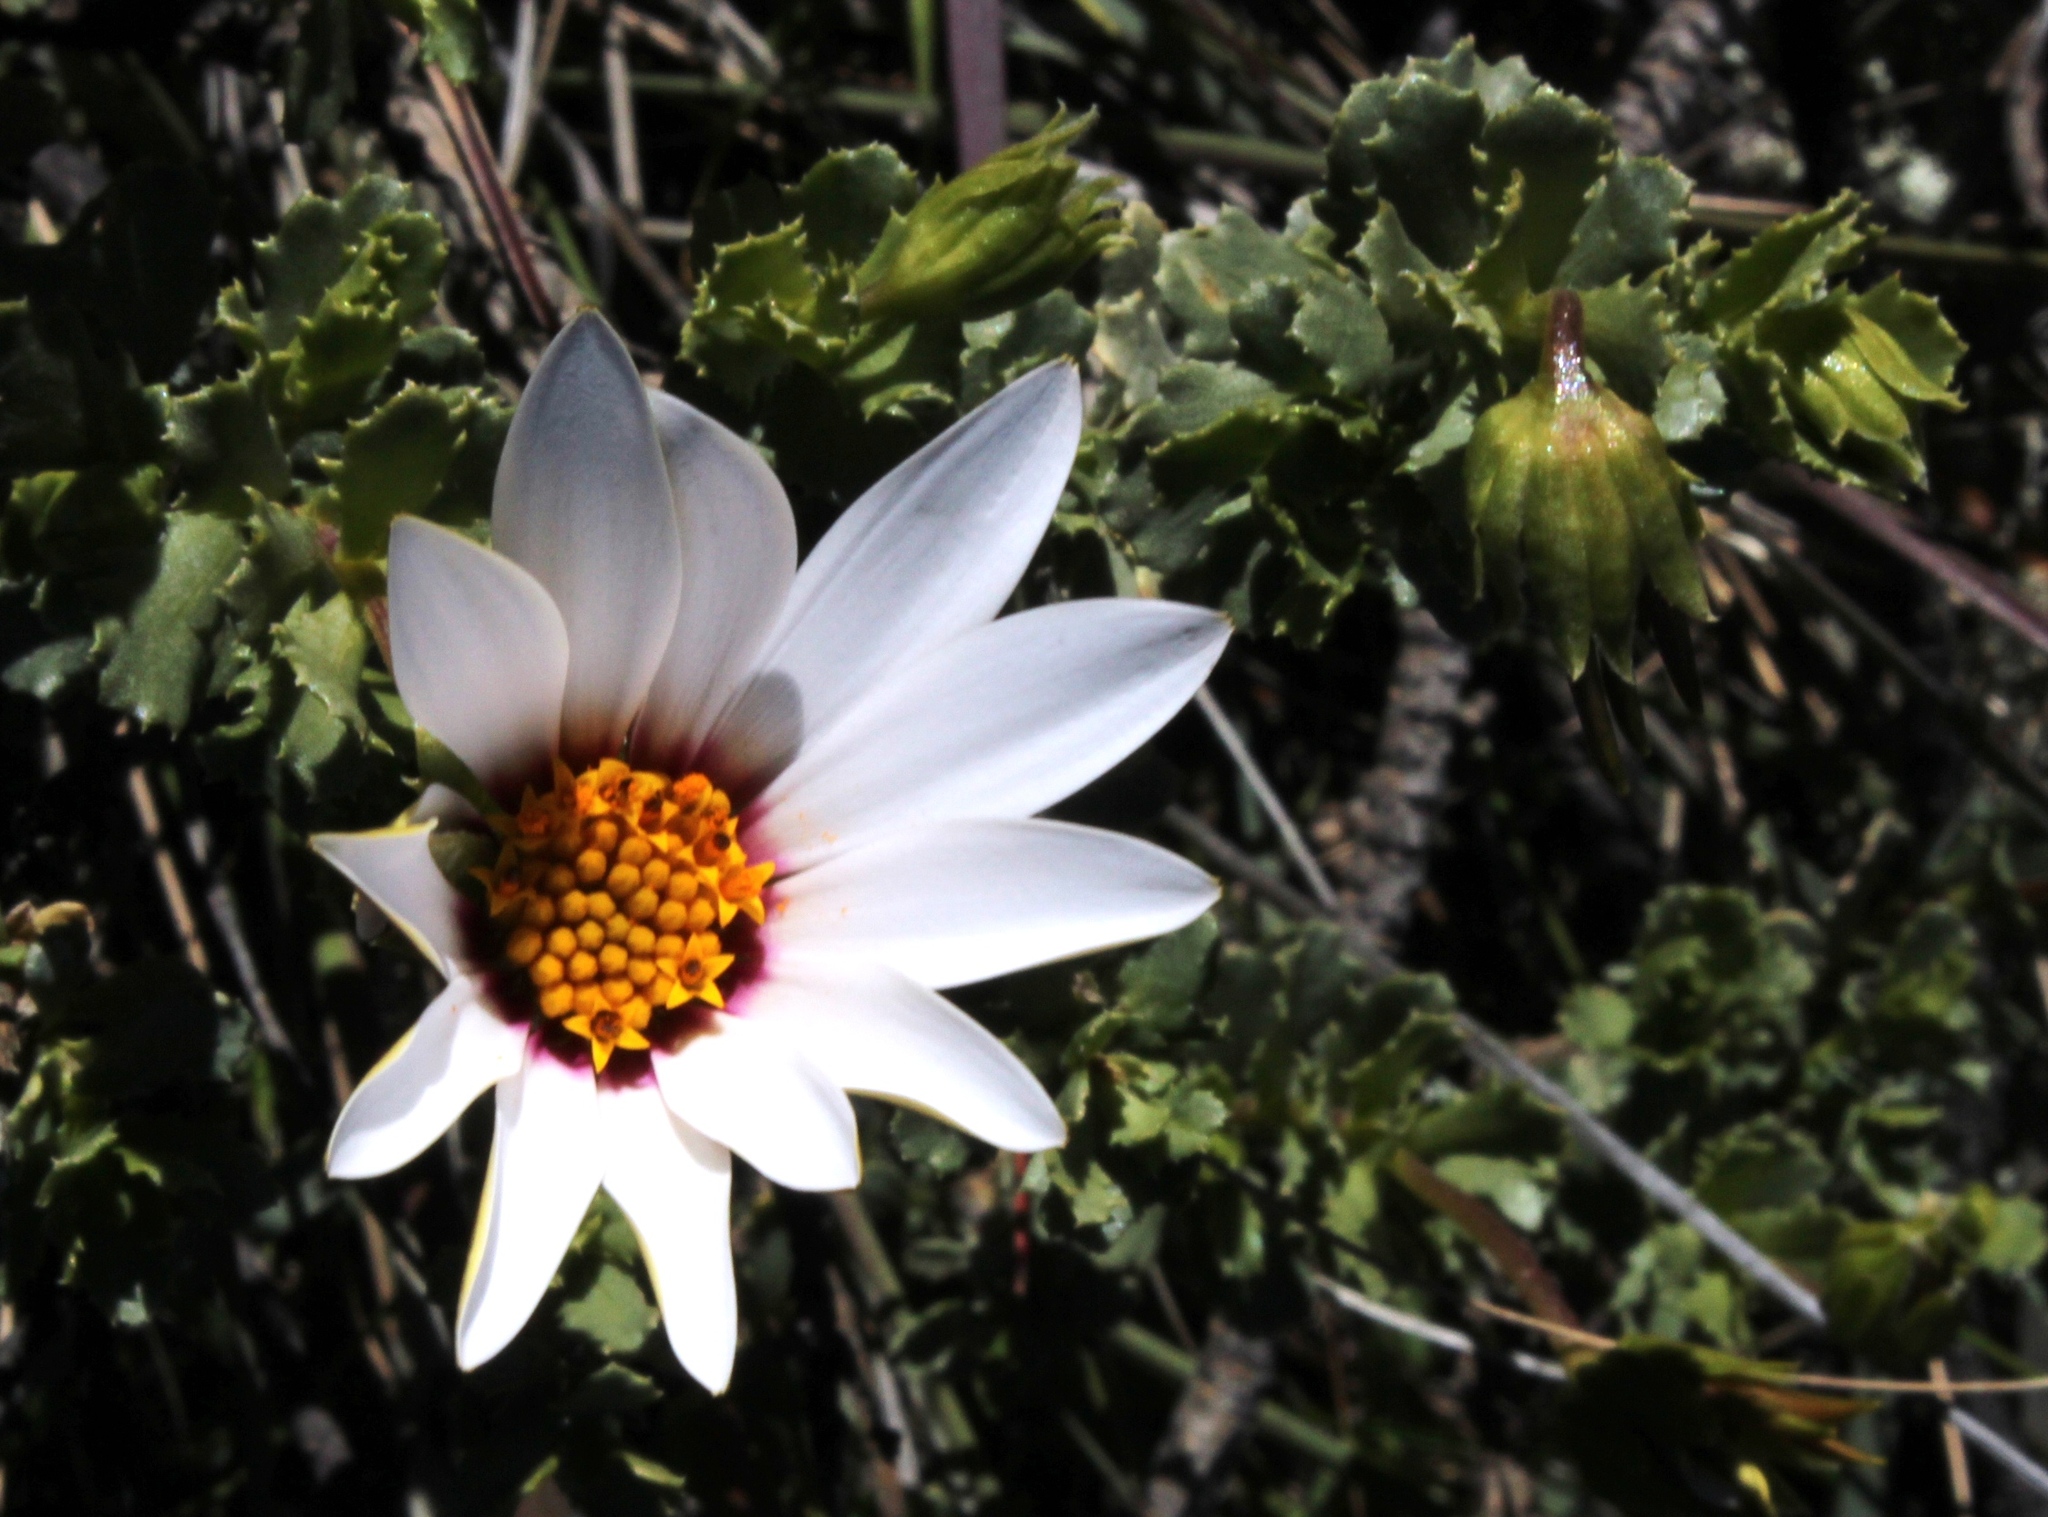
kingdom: Plantae
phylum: Tracheophyta
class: Magnoliopsida
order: Asterales
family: Asteraceae
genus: Dimorphotheca
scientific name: Dimorphotheca cuneata
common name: Daisy
